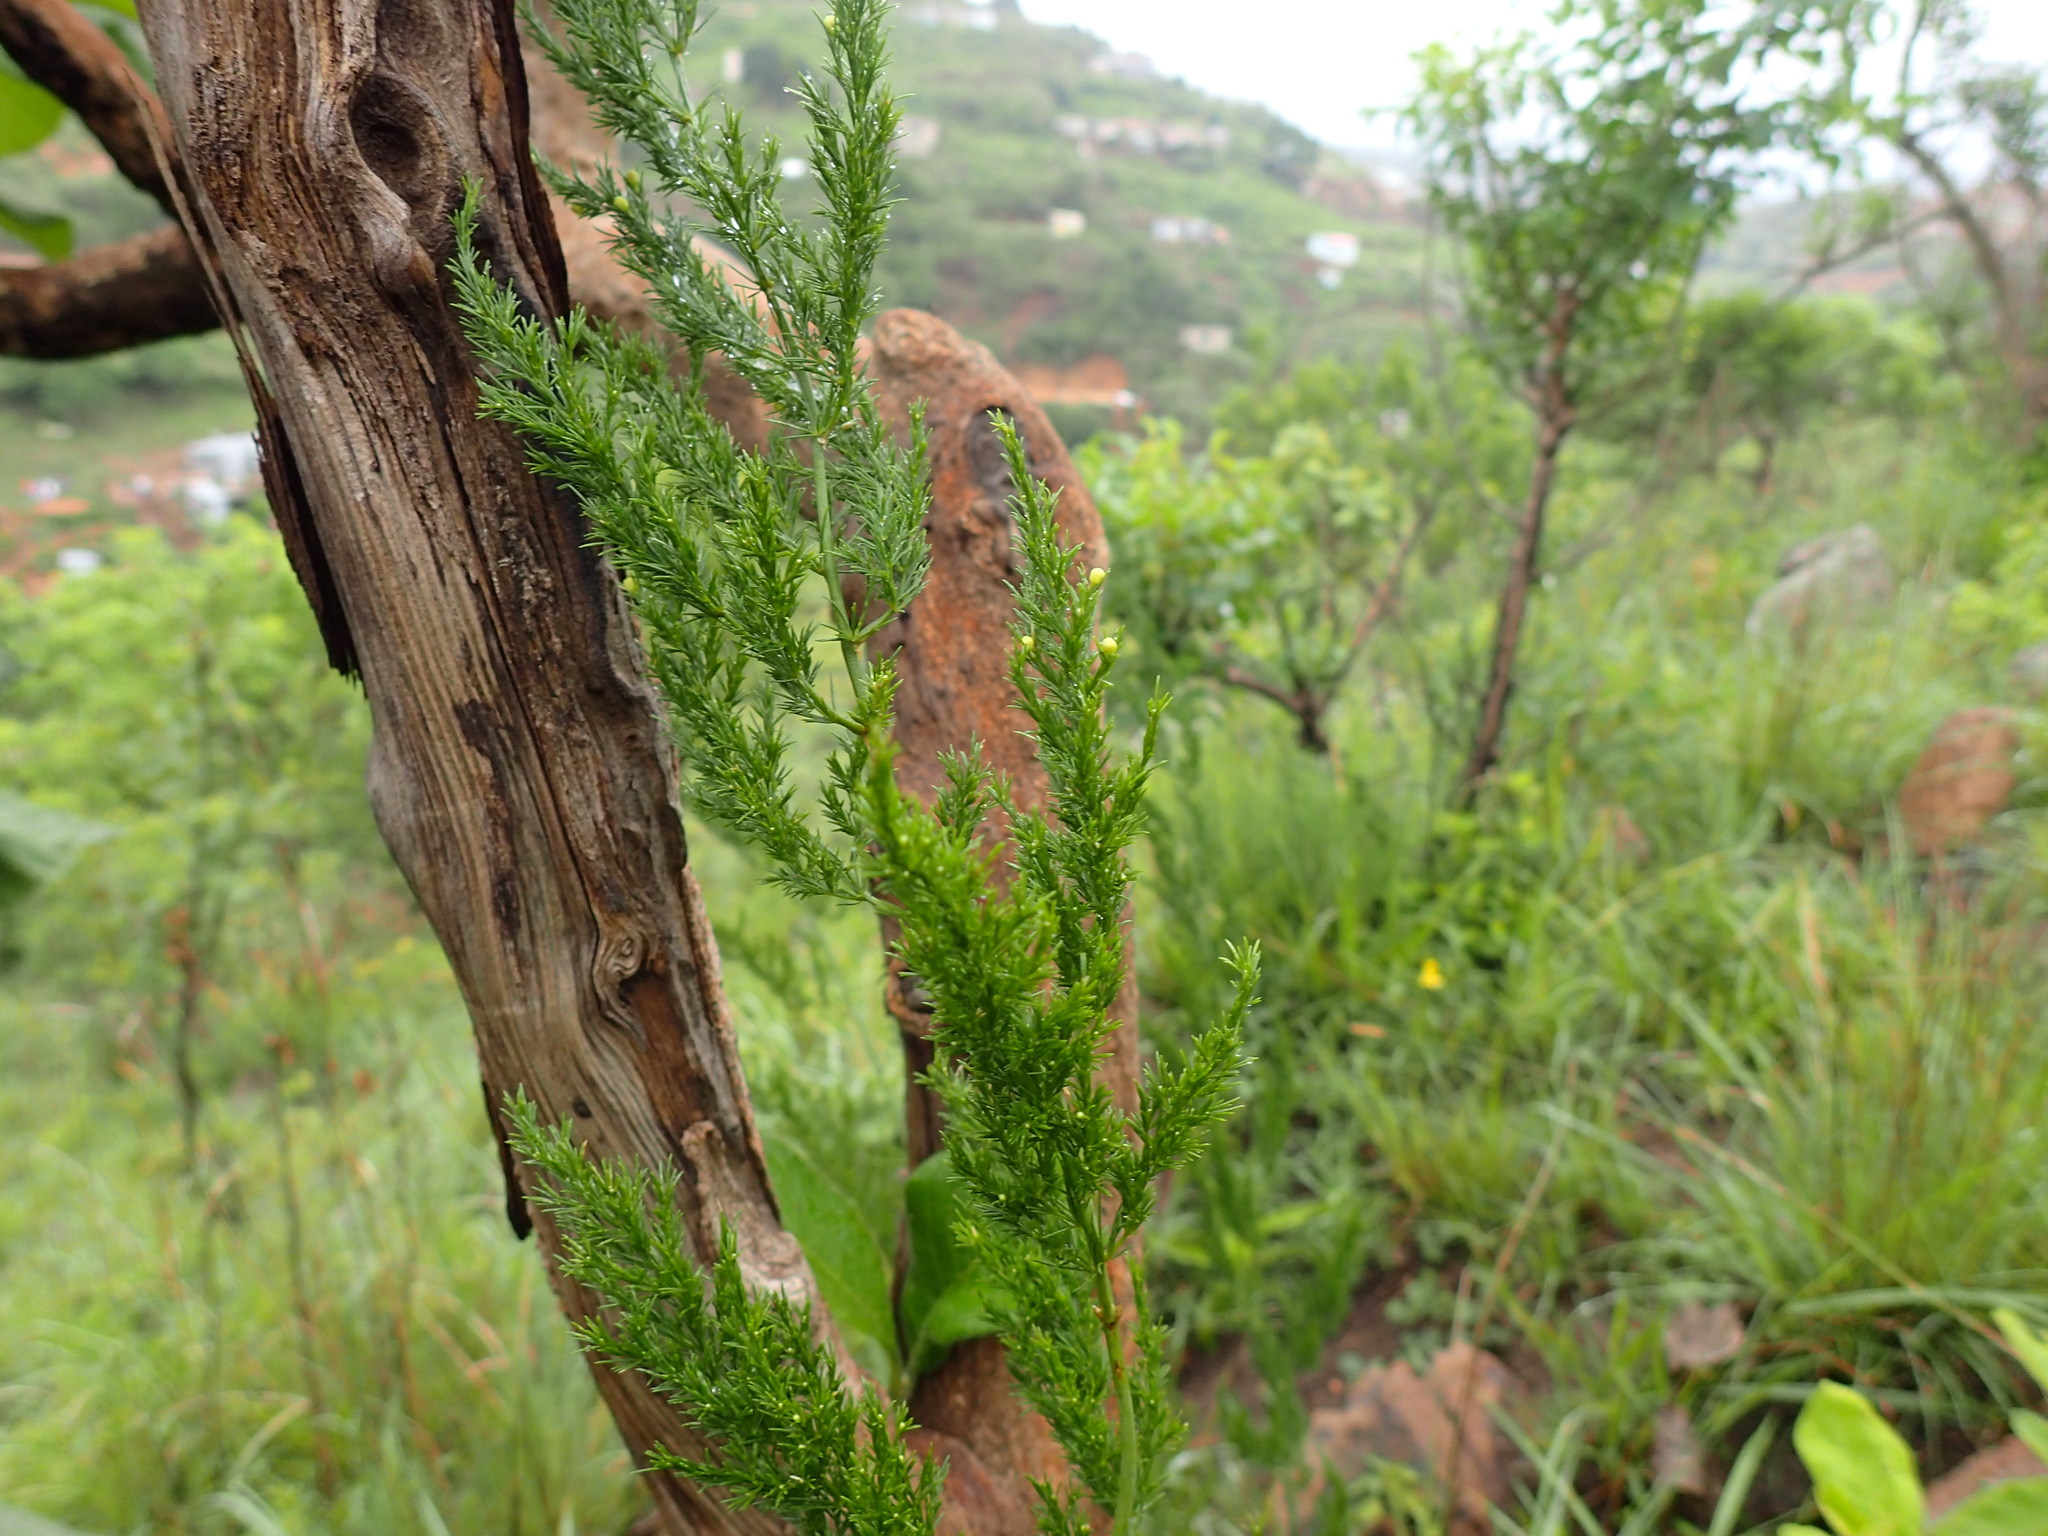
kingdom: Plantae
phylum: Tracheophyta
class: Liliopsida
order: Asparagales
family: Asparagaceae
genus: Asparagus
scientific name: Asparagus africanus
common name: Asparagus-fern
